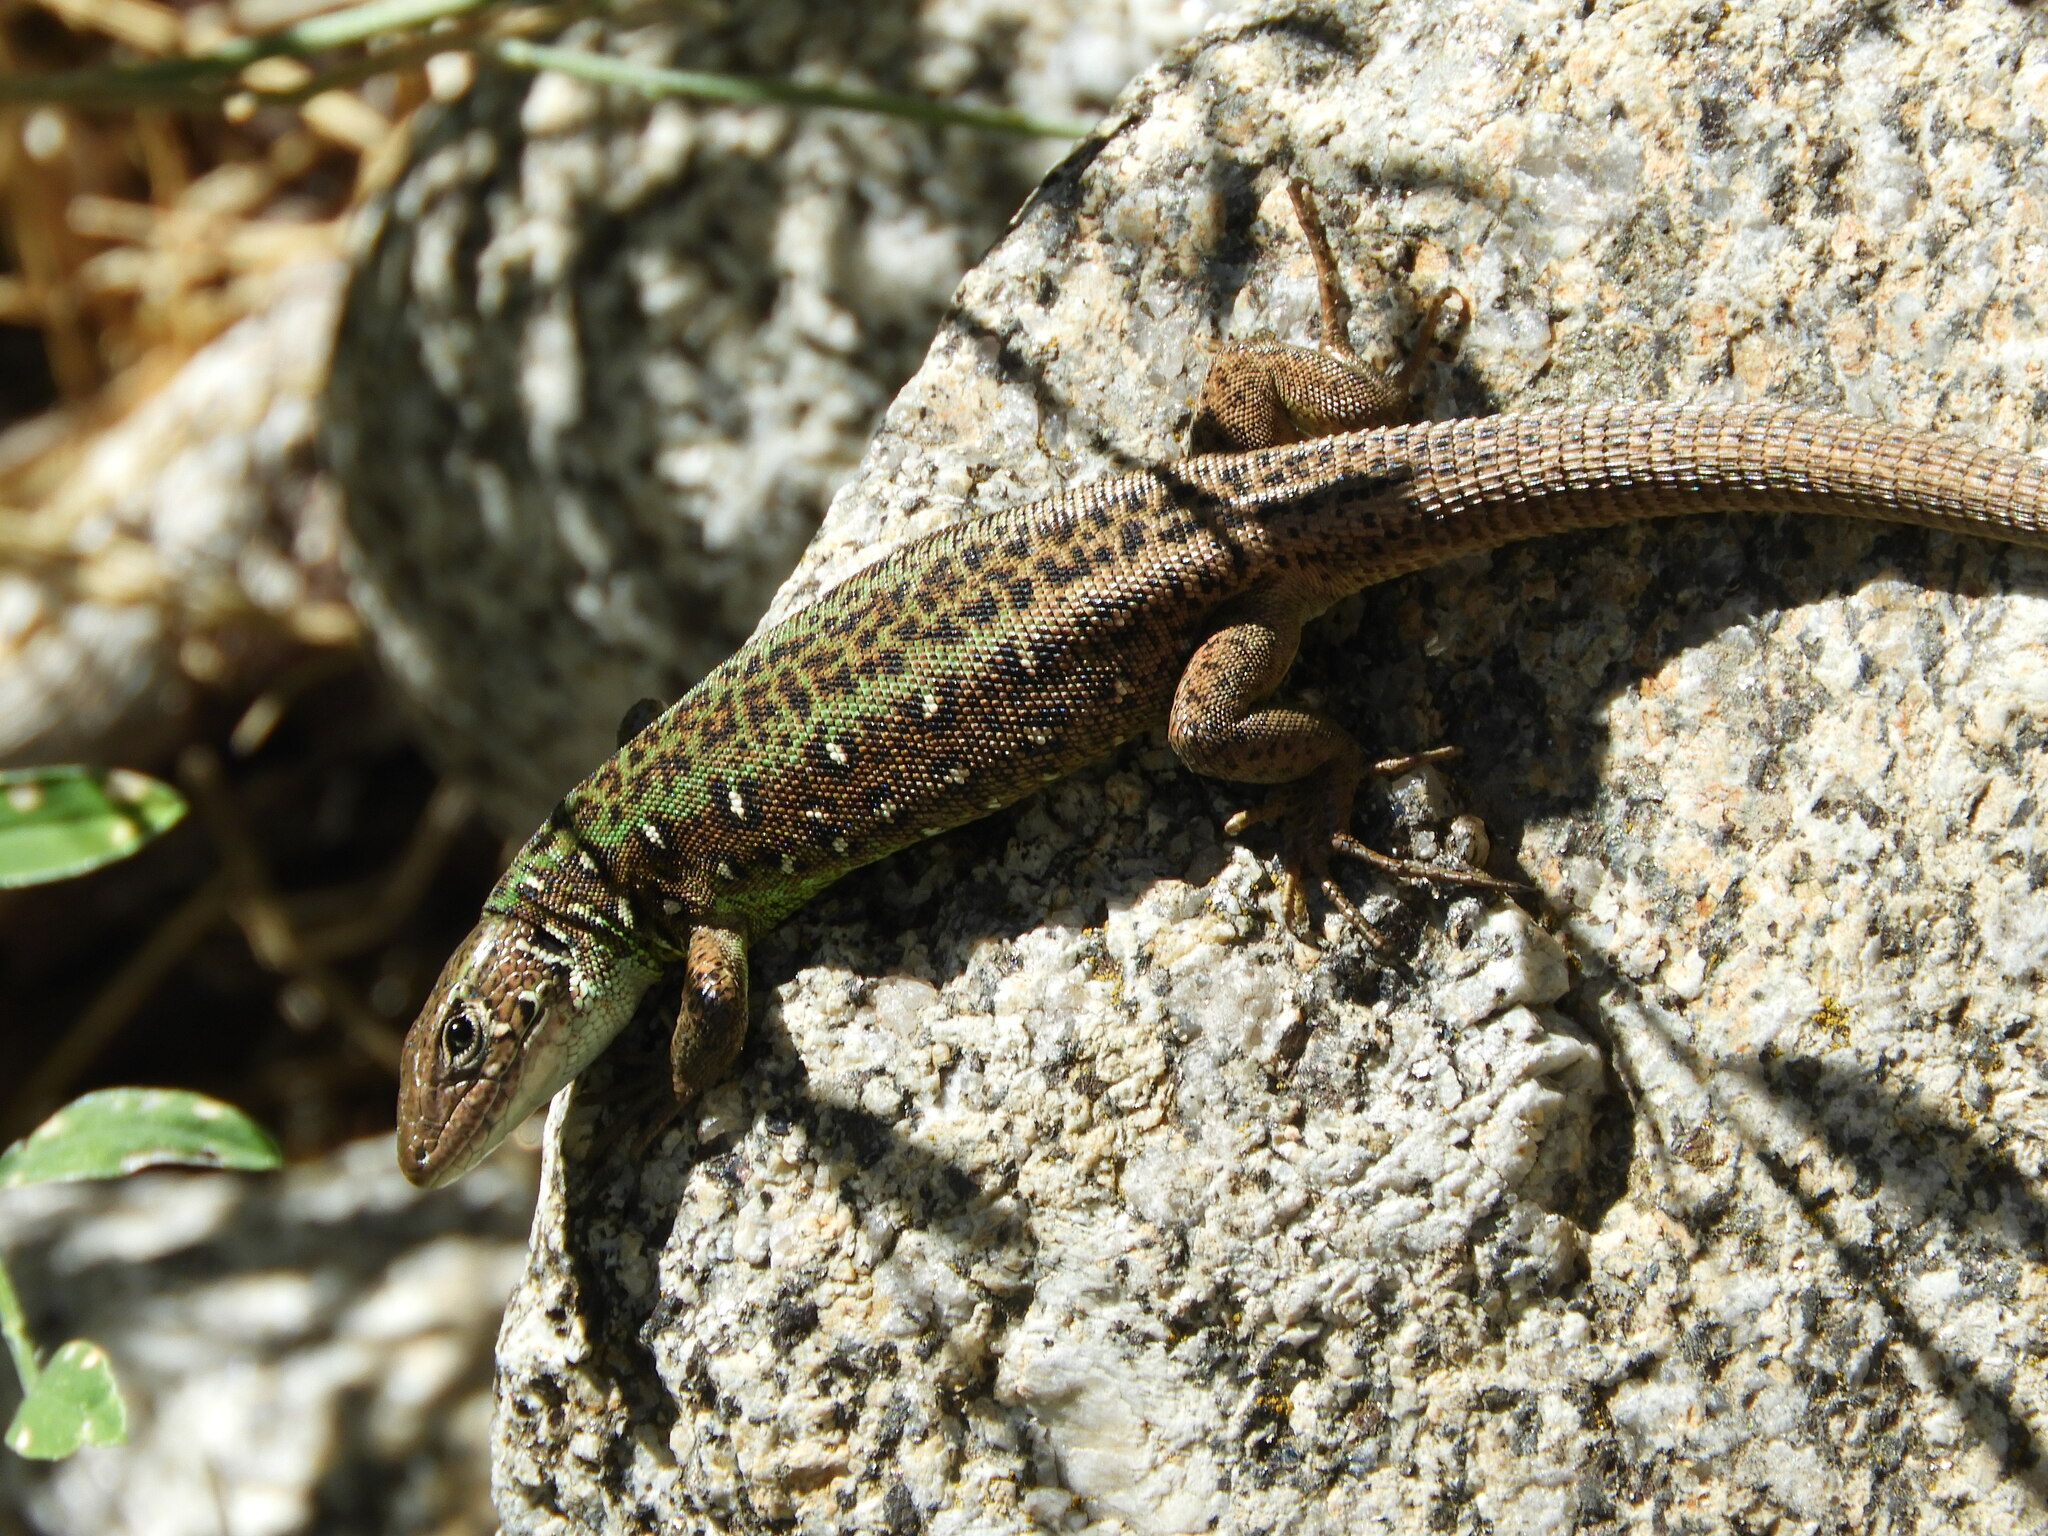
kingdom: Animalia
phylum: Chordata
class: Squamata
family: Lacertidae
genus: Lacerta
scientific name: Lacerta schreiberi
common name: Iberian emerald lizard
